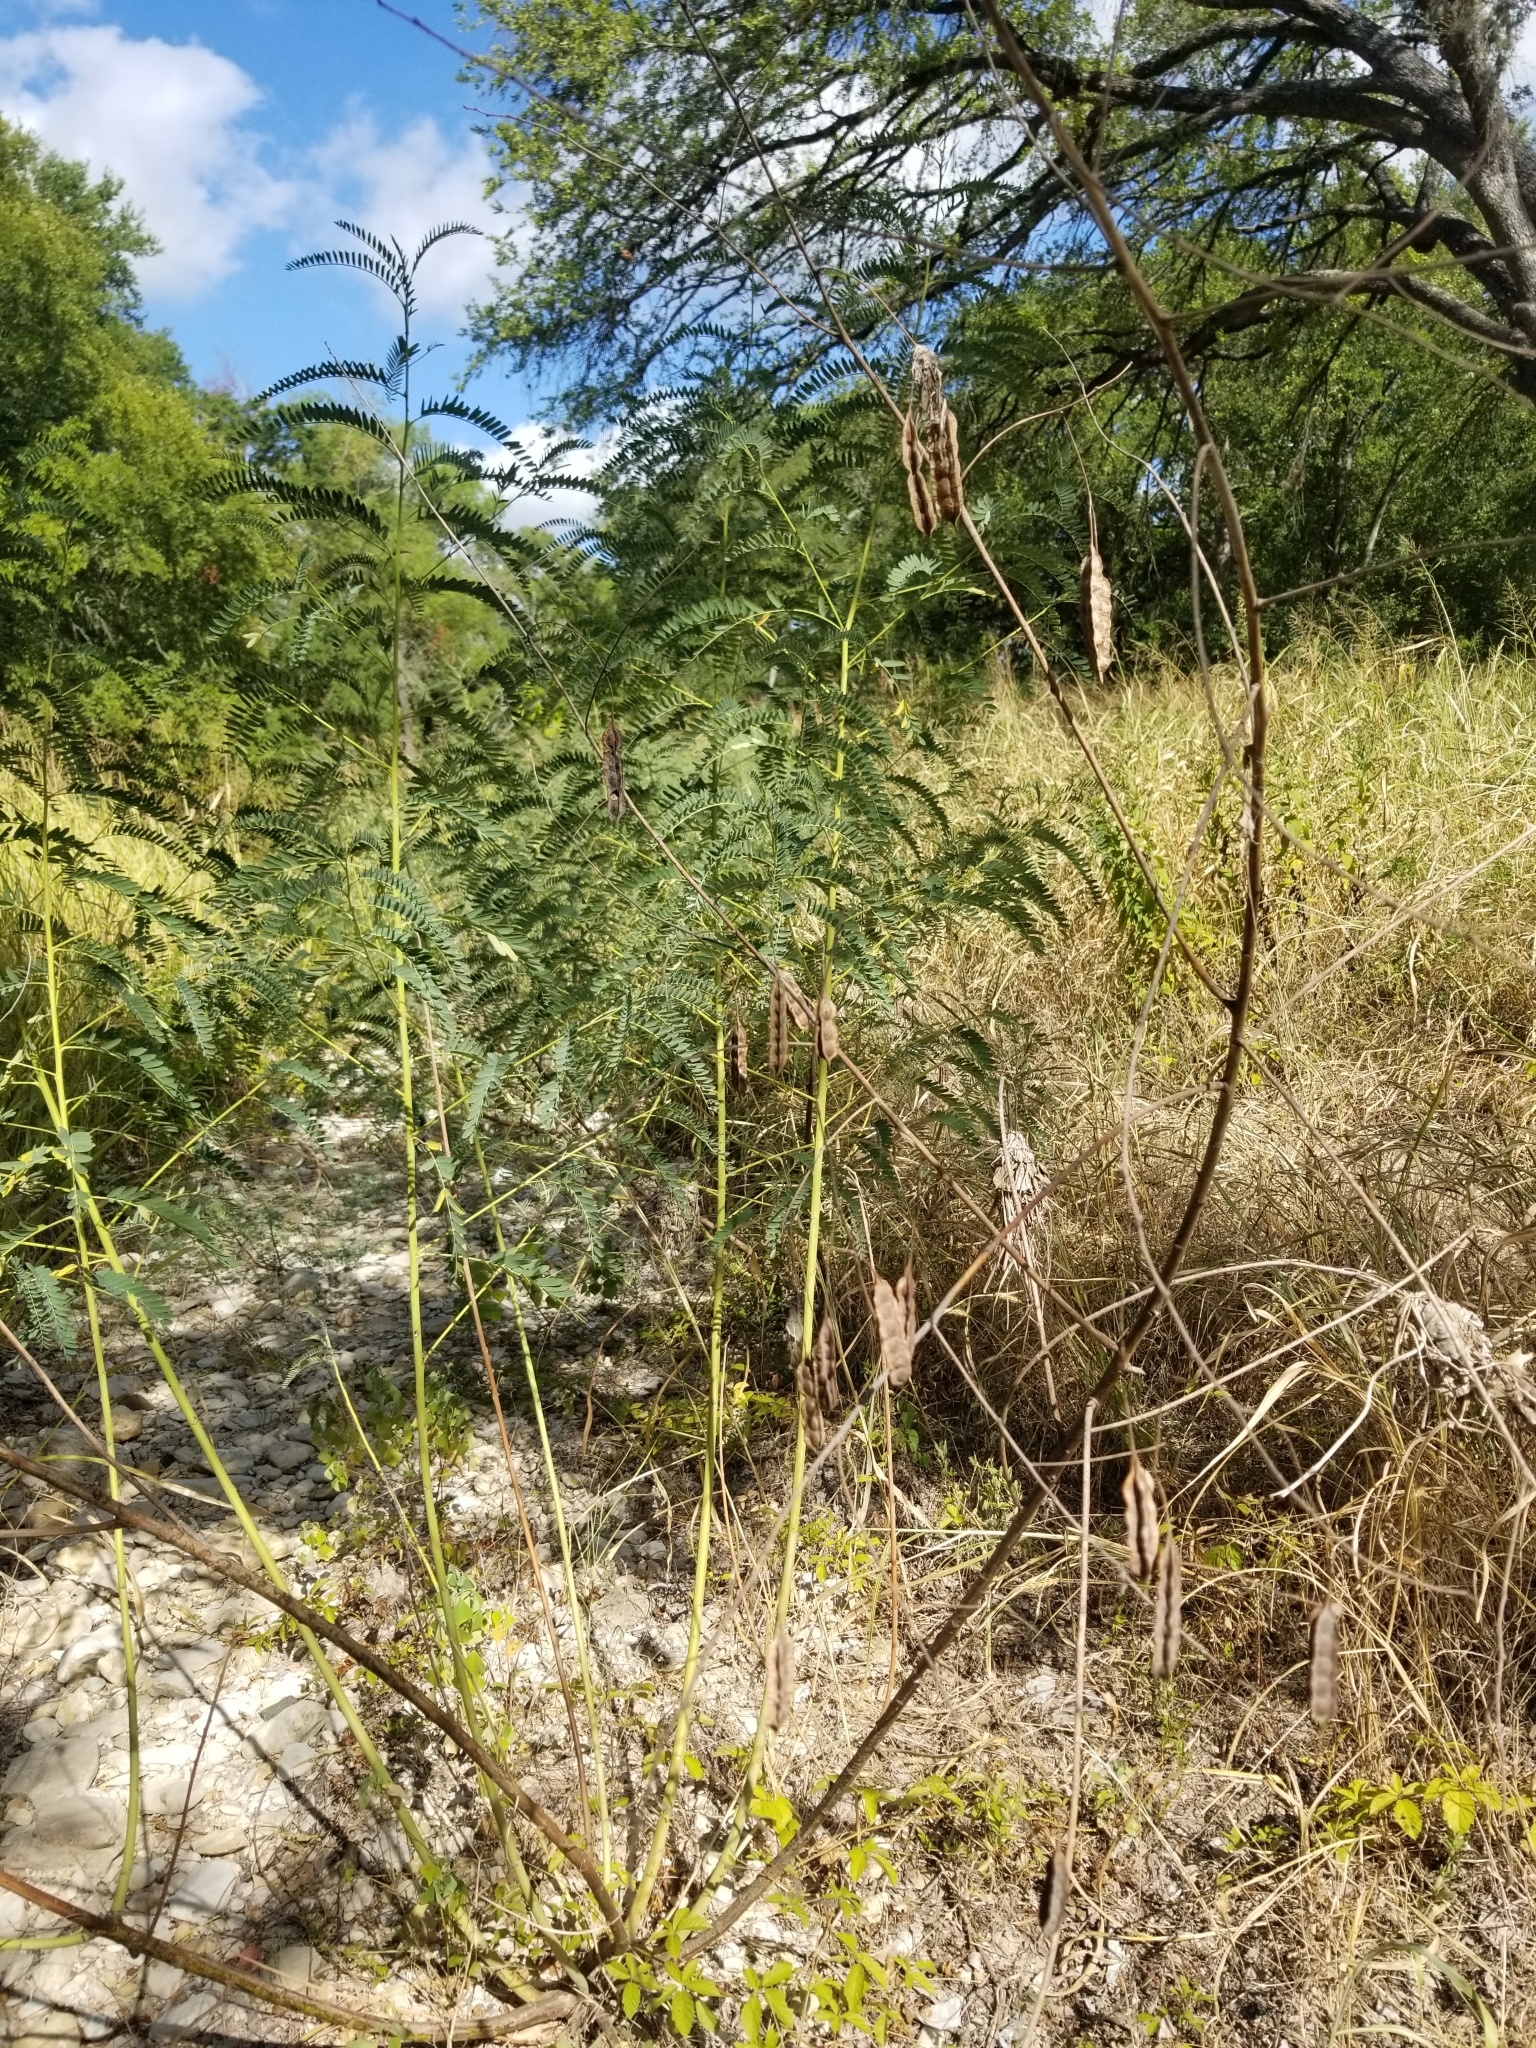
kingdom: Plantae
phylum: Tracheophyta
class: Magnoliopsida
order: Fabales
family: Fabaceae
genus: Sesbania
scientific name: Sesbania drummondii
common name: Poison-bean
